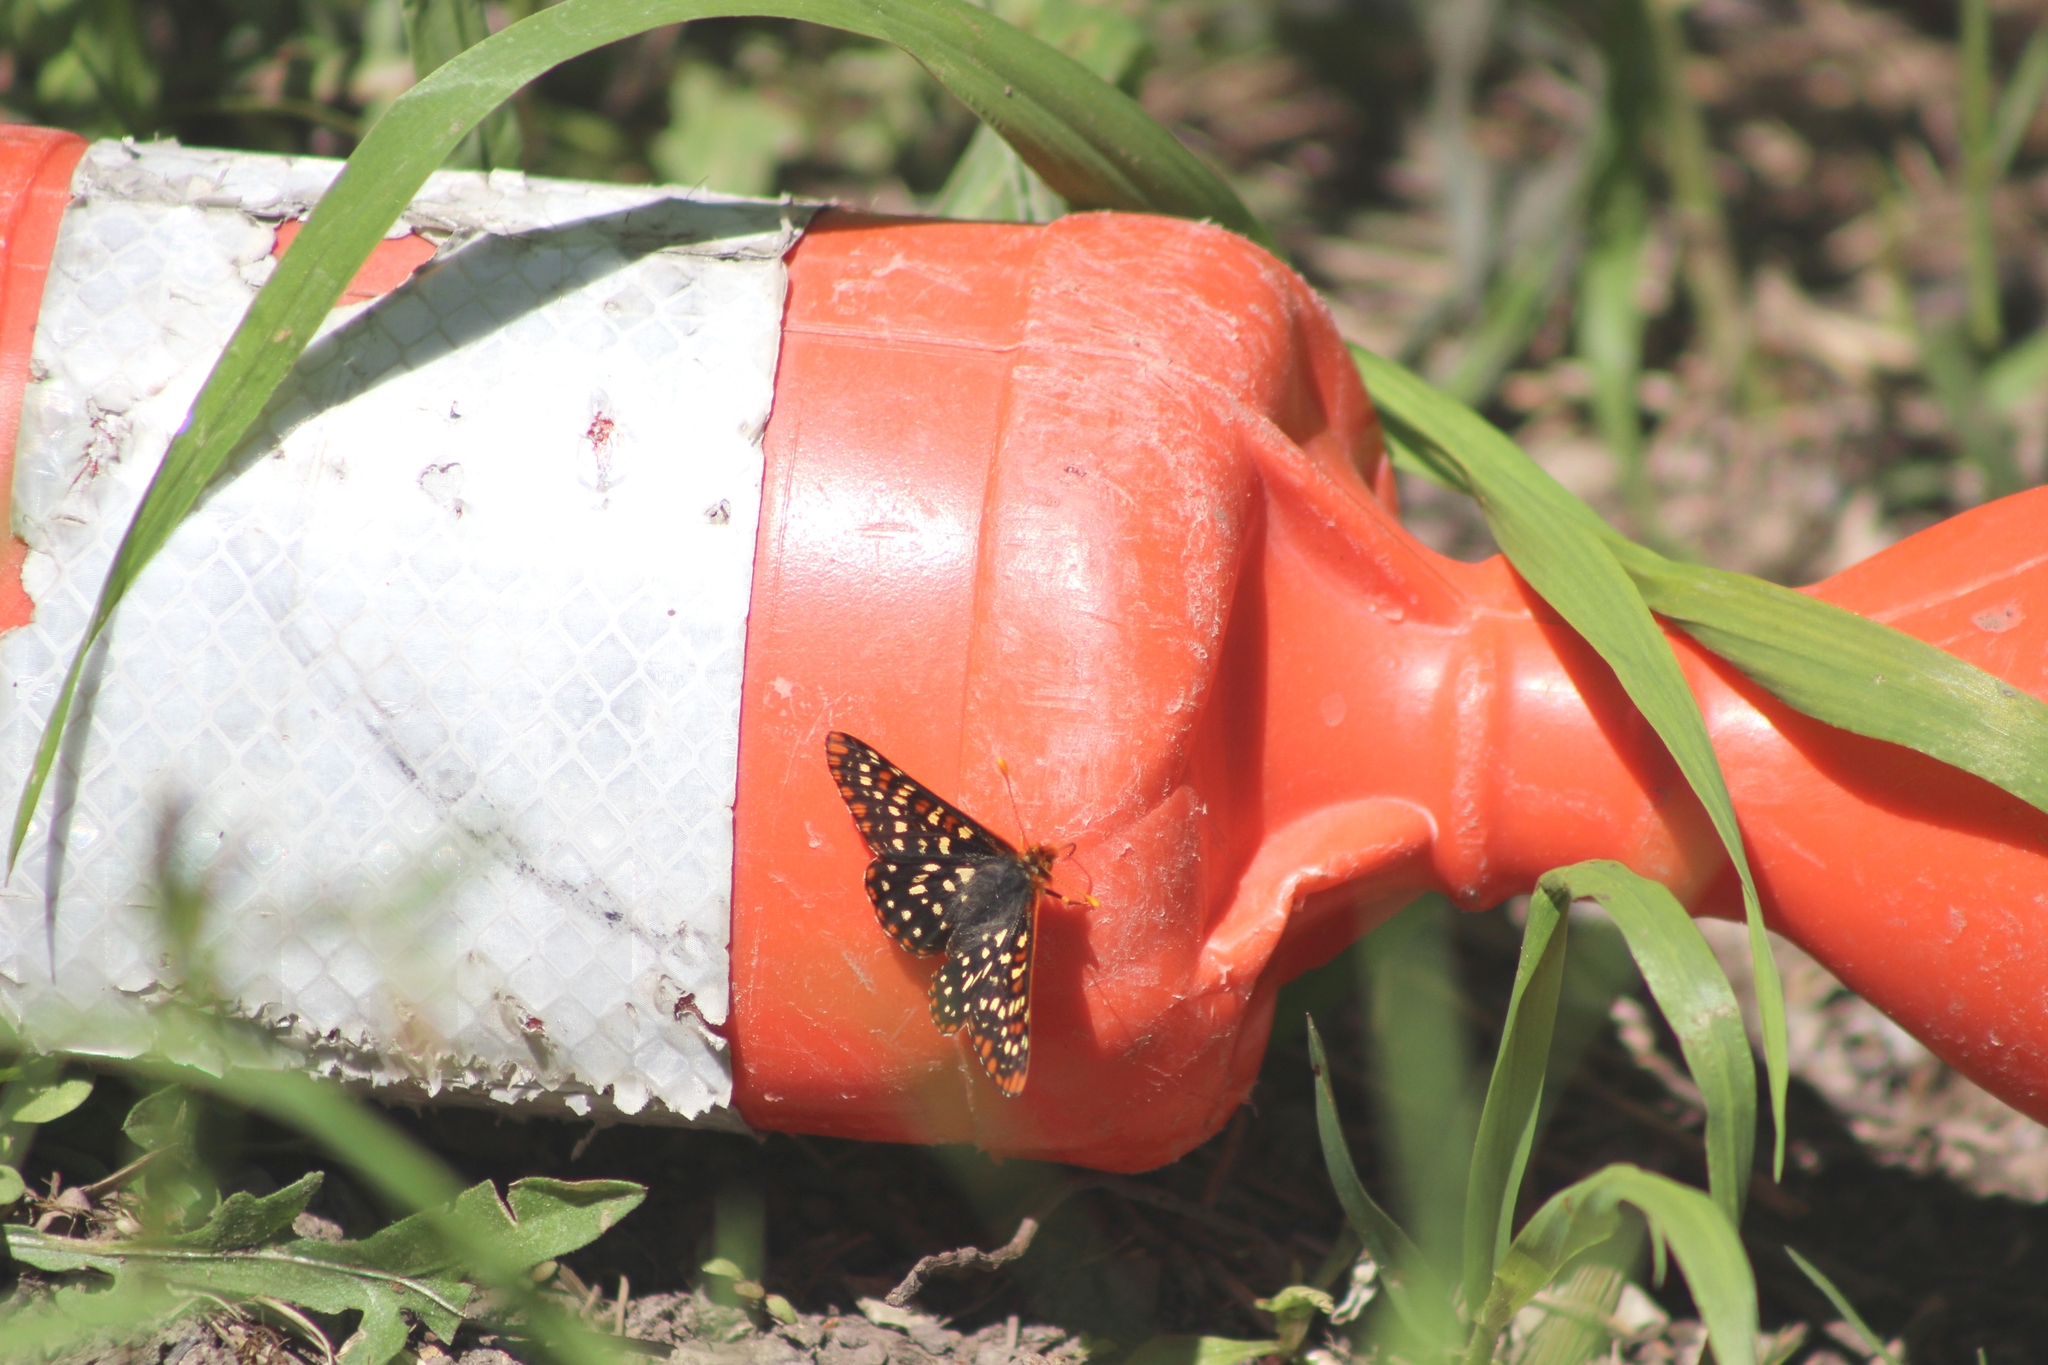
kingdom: Animalia
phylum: Arthropoda
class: Insecta
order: Lepidoptera
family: Nymphalidae
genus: Occidryas
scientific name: Occidryas colon
